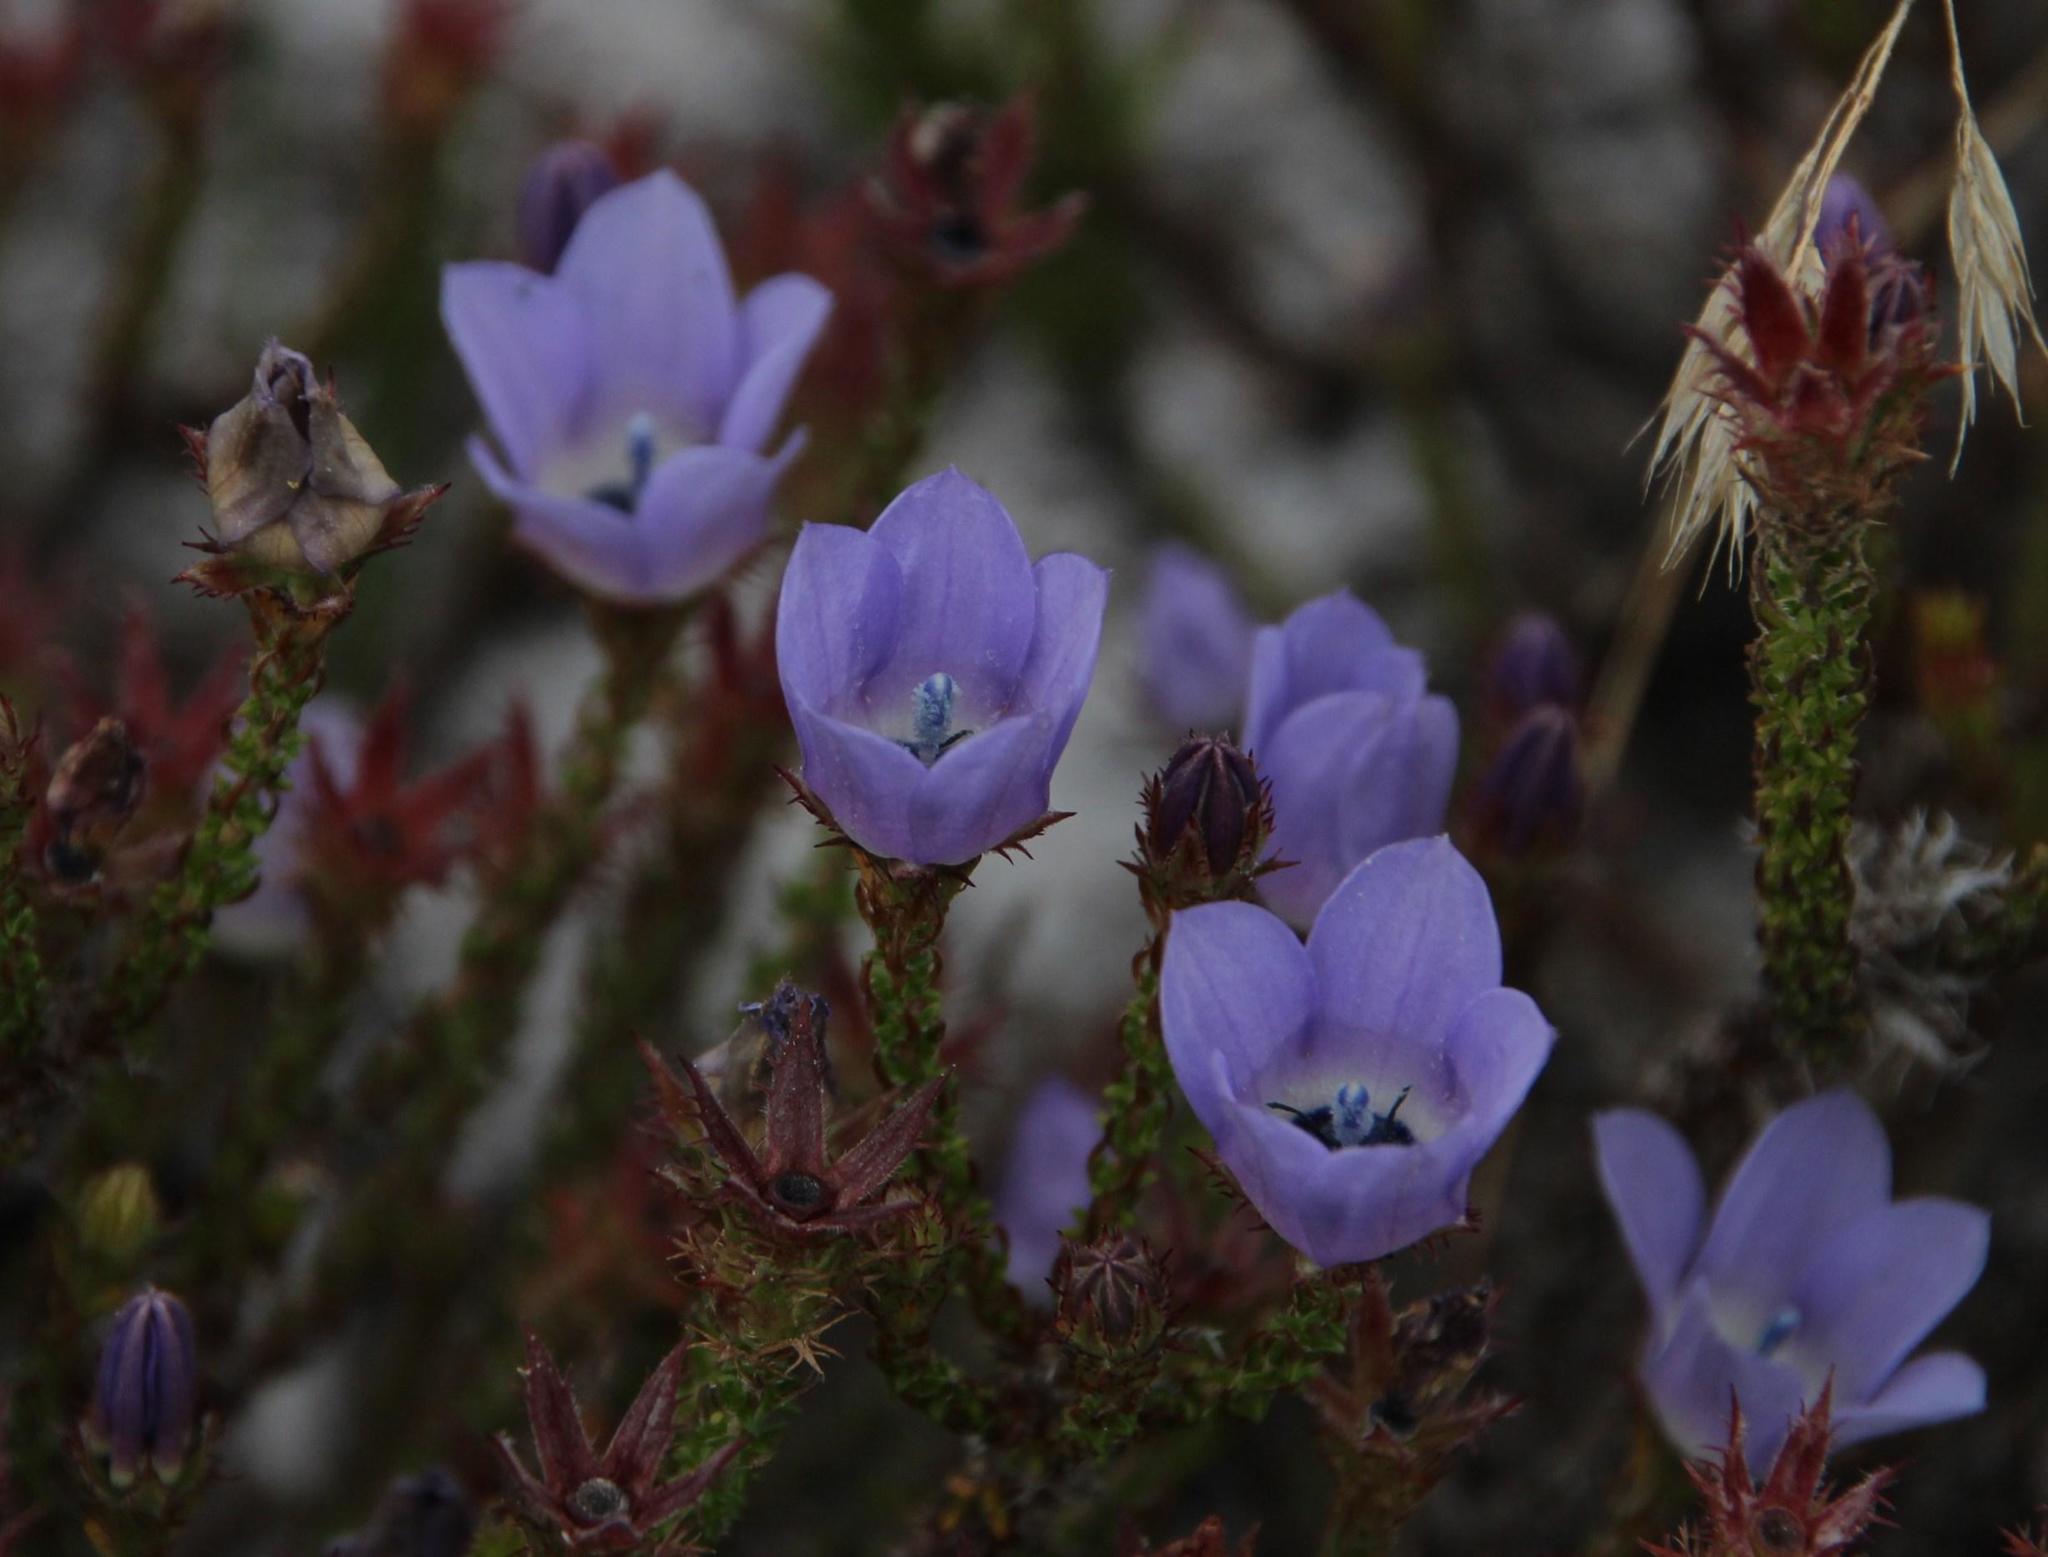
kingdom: Plantae
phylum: Tracheophyta
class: Magnoliopsida
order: Asterales
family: Campanulaceae
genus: Roella
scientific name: Roella triflora
